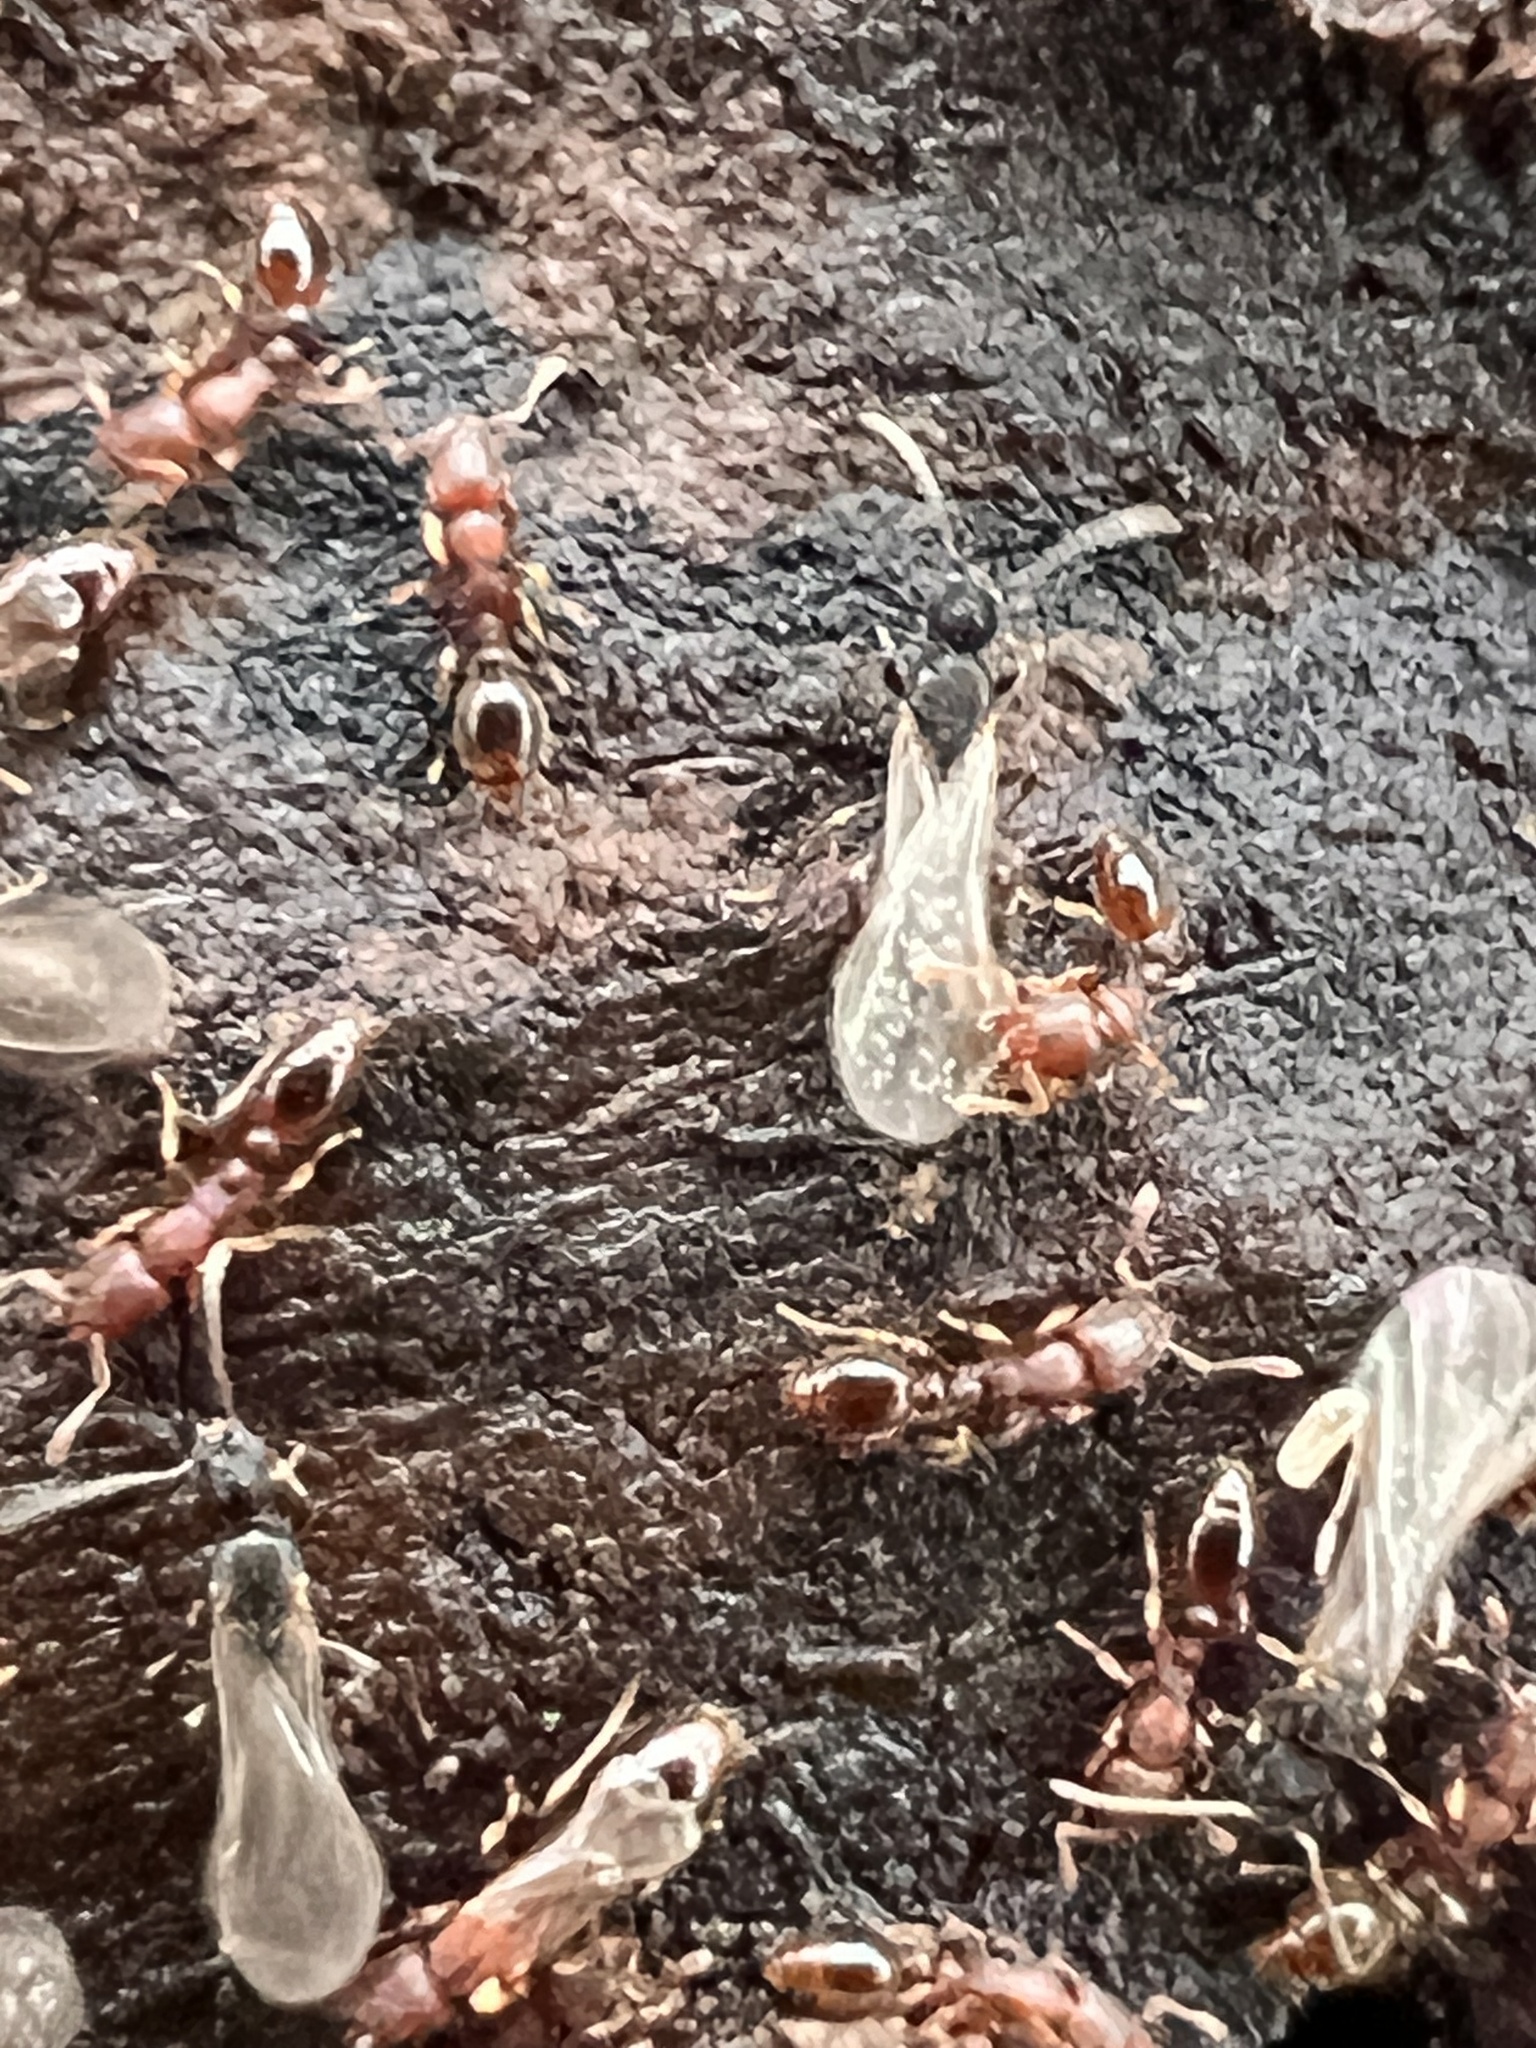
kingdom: Animalia
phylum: Arthropoda
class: Insecta
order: Hymenoptera
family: Formicidae
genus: Vollenhovia
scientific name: Vollenhovia emeryi
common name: Ant
